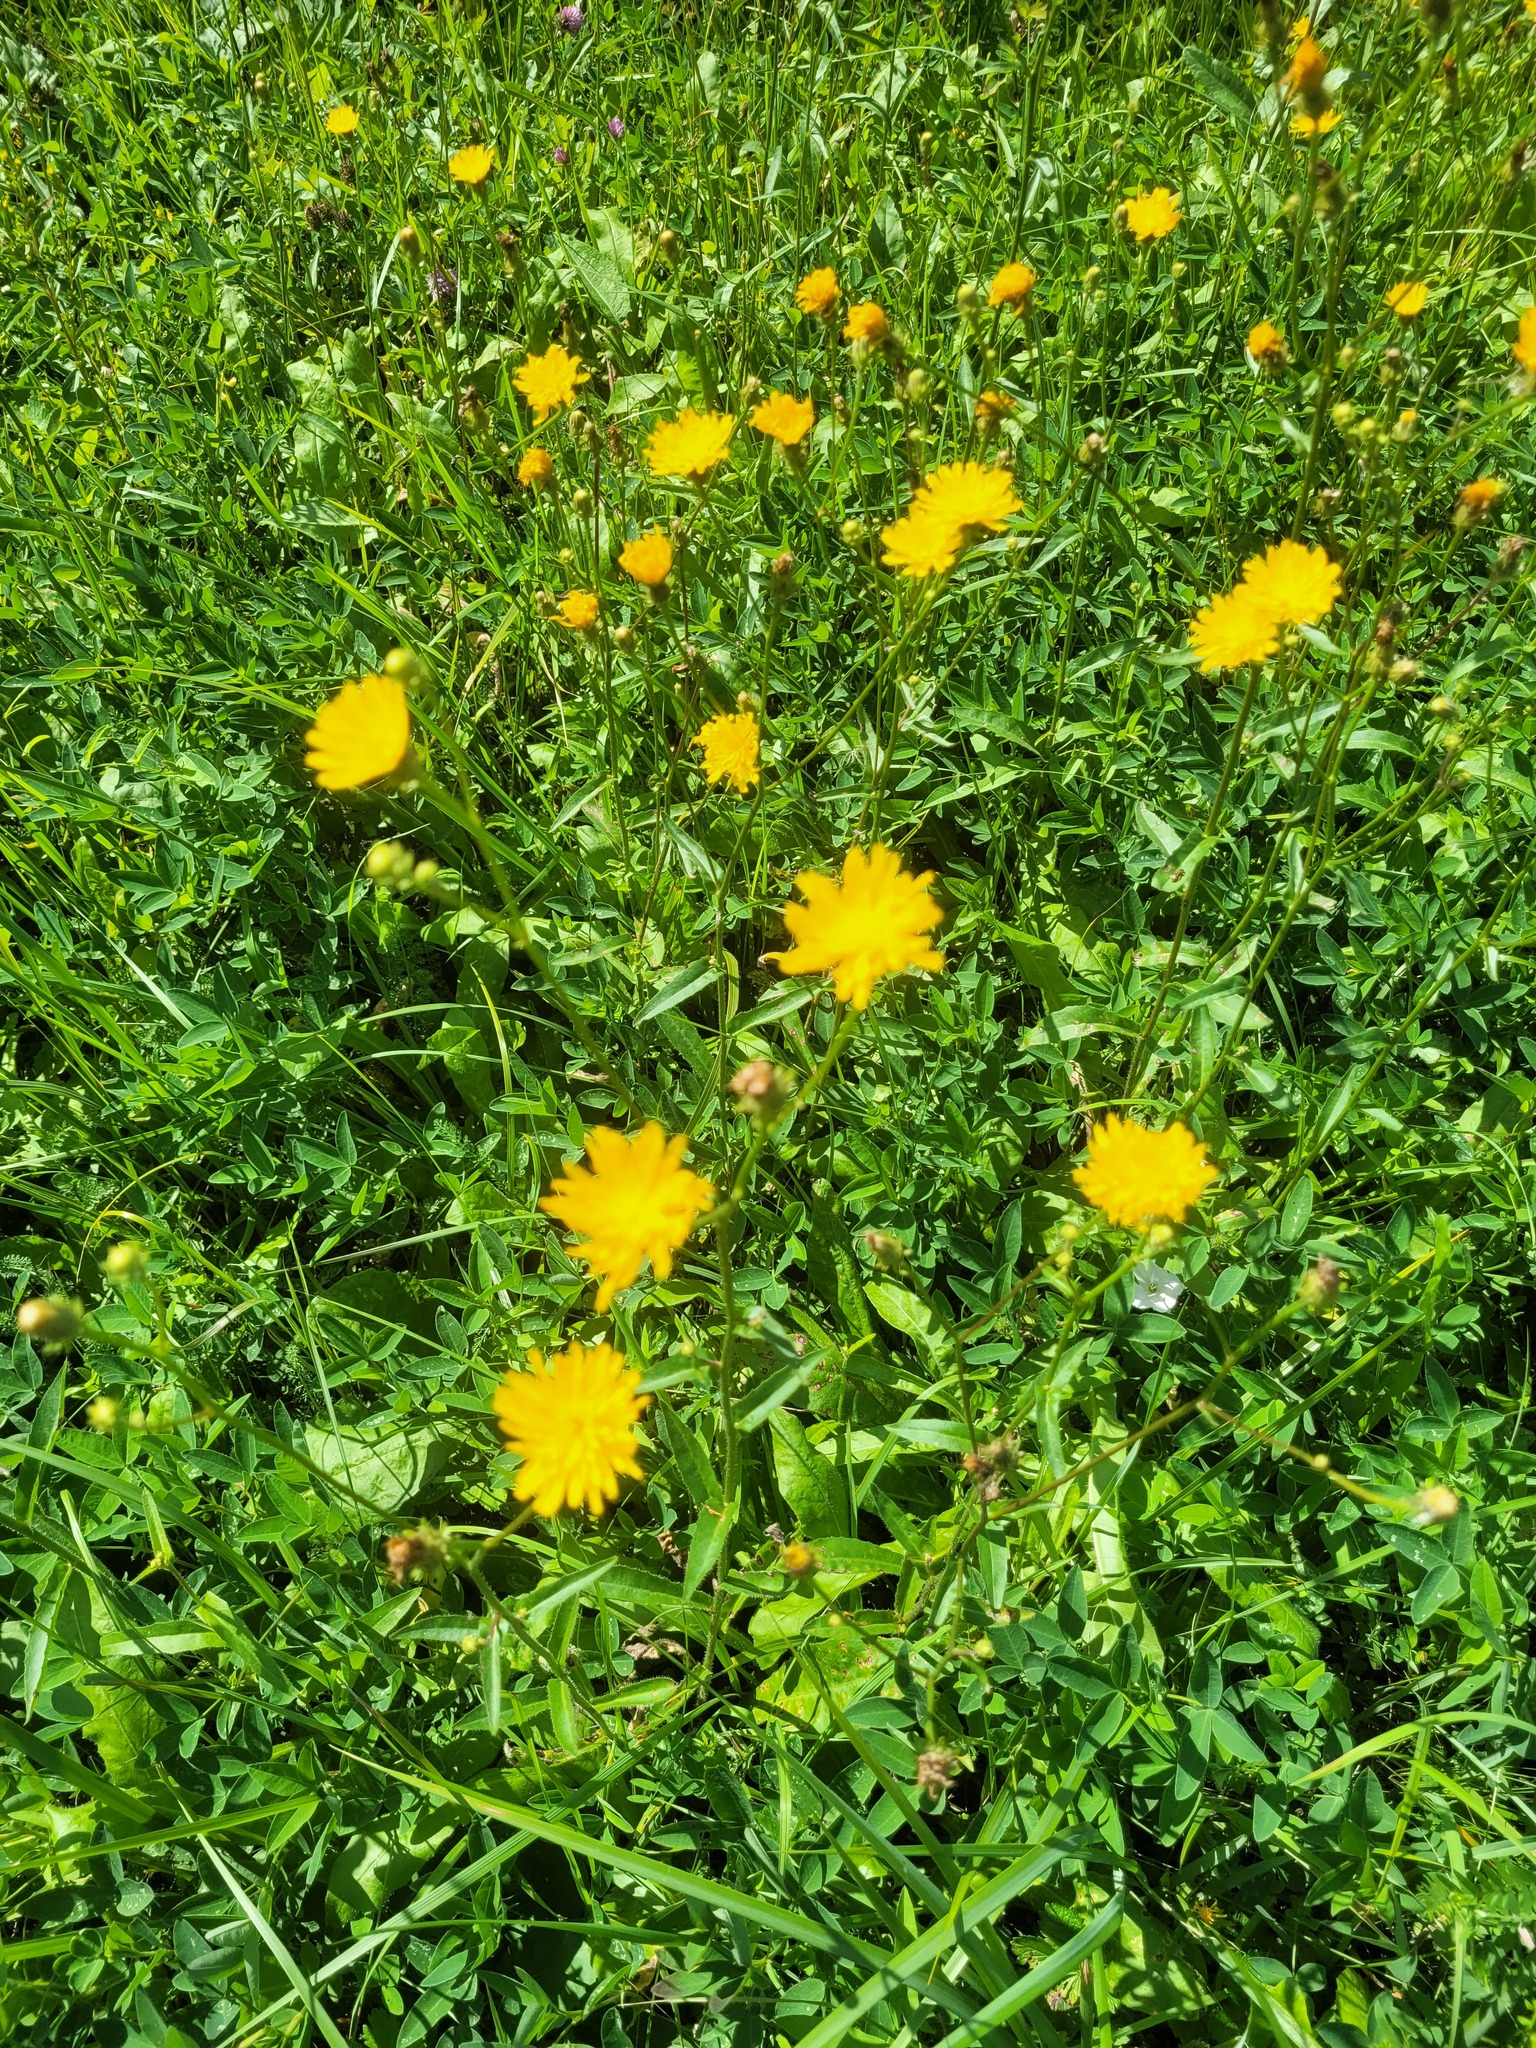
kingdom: Plantae
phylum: Tracheophyta
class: Magnoliopsida
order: Asterales
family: Asteraceae
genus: Picris
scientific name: Picris hieracioides
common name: Hawkweed oxtongue
